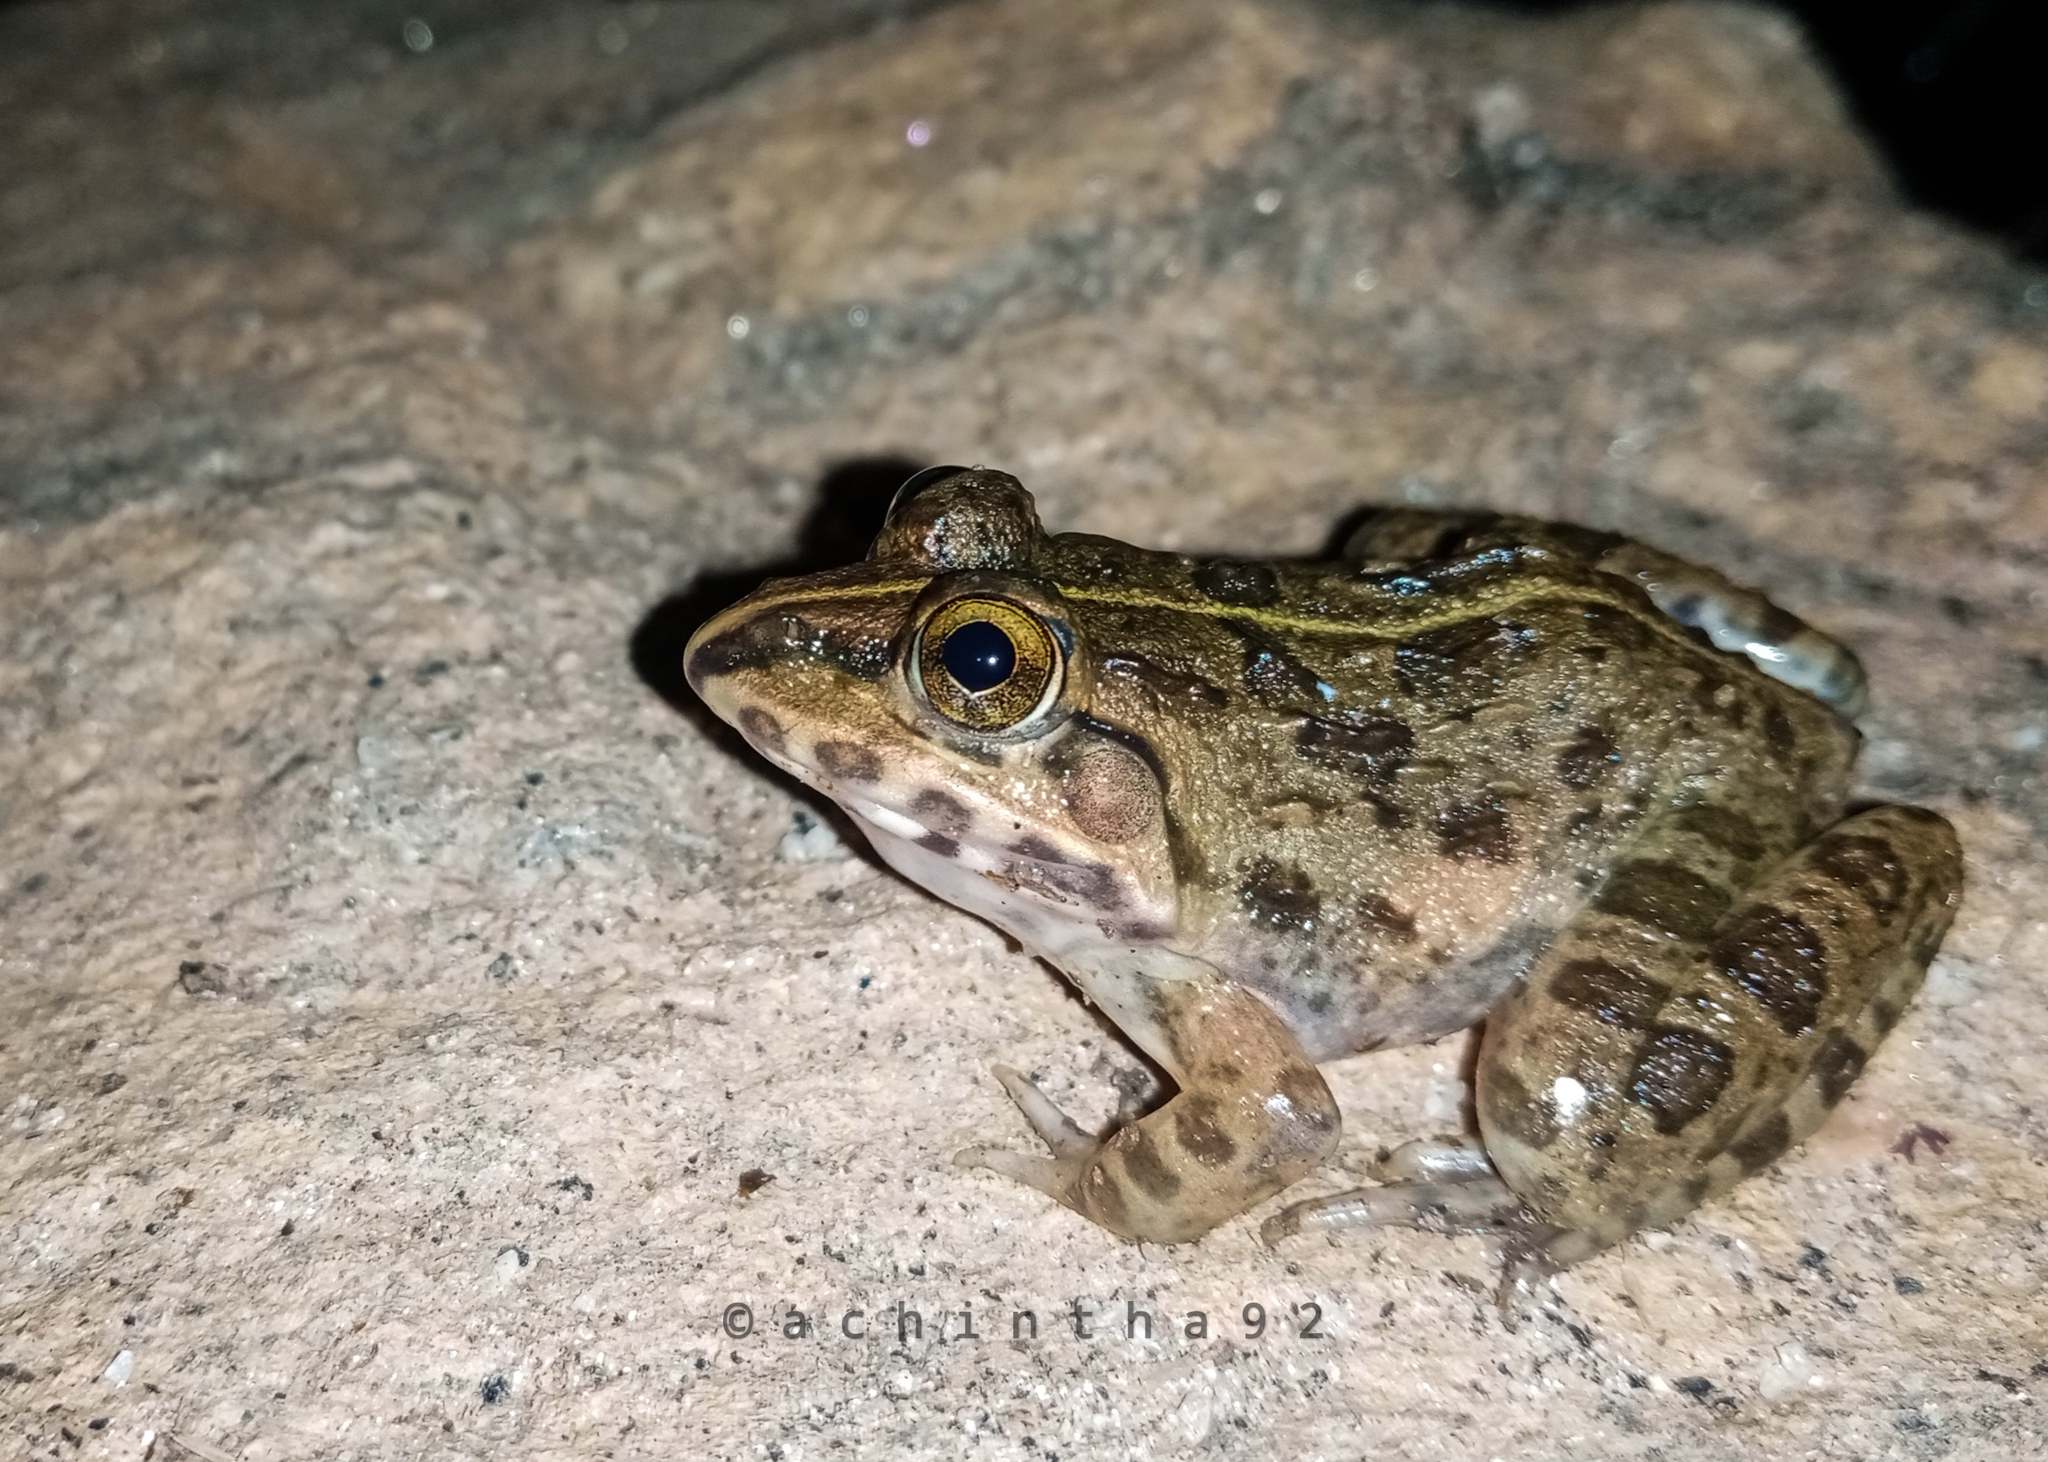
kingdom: Animalia
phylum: Chordata
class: Amphibia
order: Anura
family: Dicroglossidae
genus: Minervarya
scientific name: Minervarya agricola
